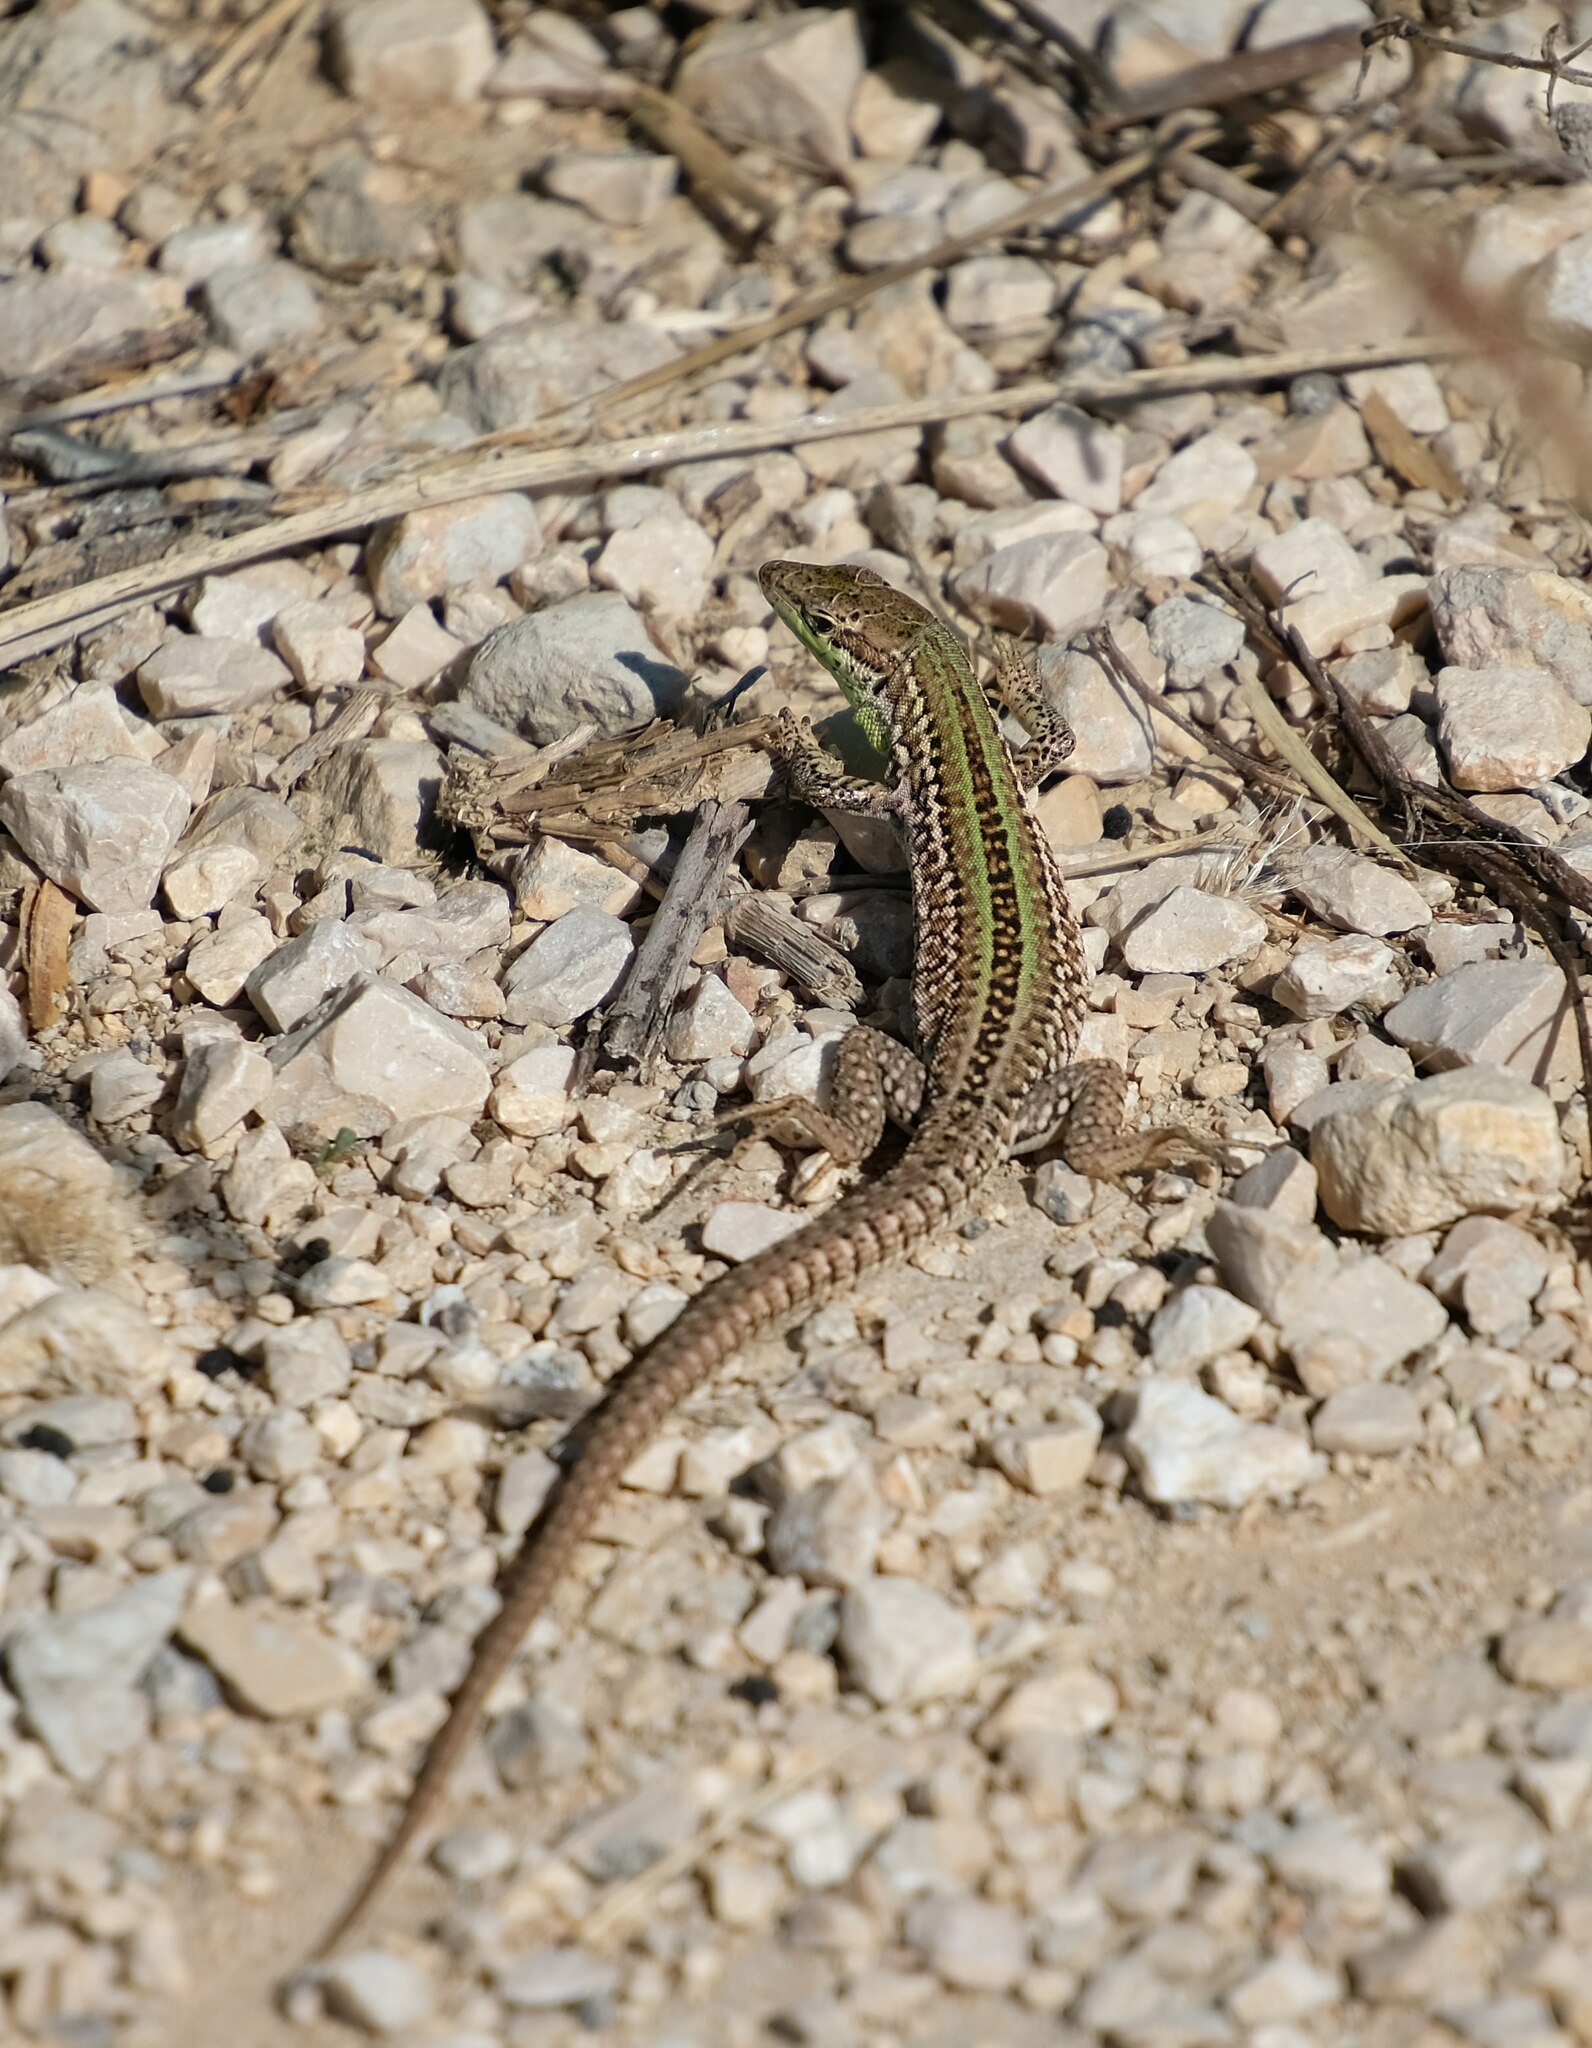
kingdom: Animalia
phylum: Chordata
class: Squamata
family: Lacertidae
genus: Podarcis
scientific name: Podarcis siculus
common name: Italian wall lizard
